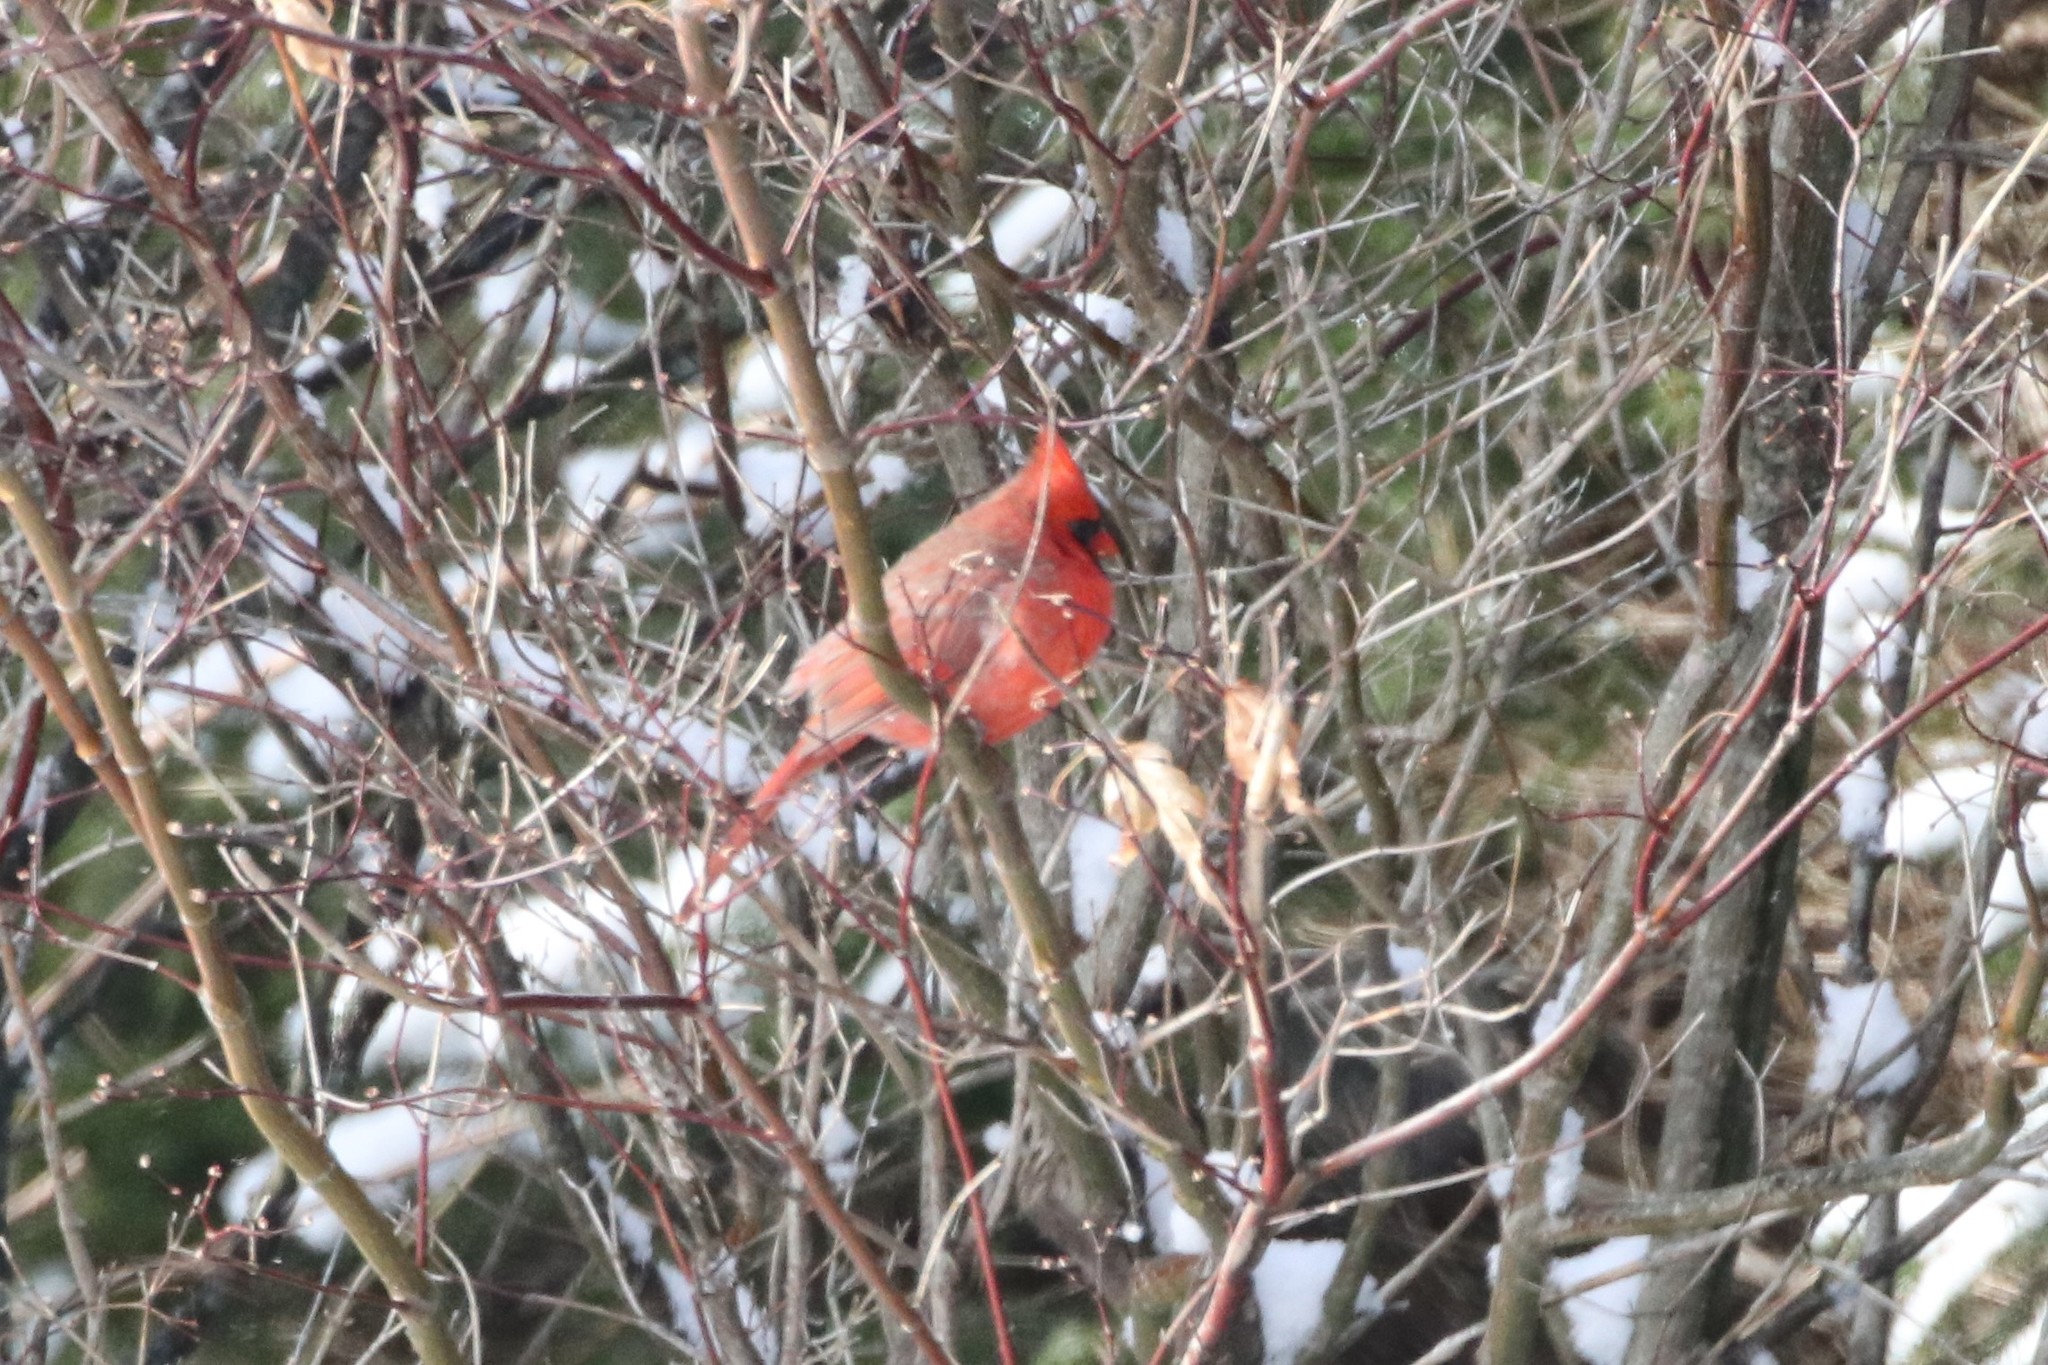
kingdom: Animalia
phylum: Chordata
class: Aves
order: Passeriformes
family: Cardinalidae
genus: Cardinalis
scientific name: Cardinalis cardinalis
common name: Northern cardinal
